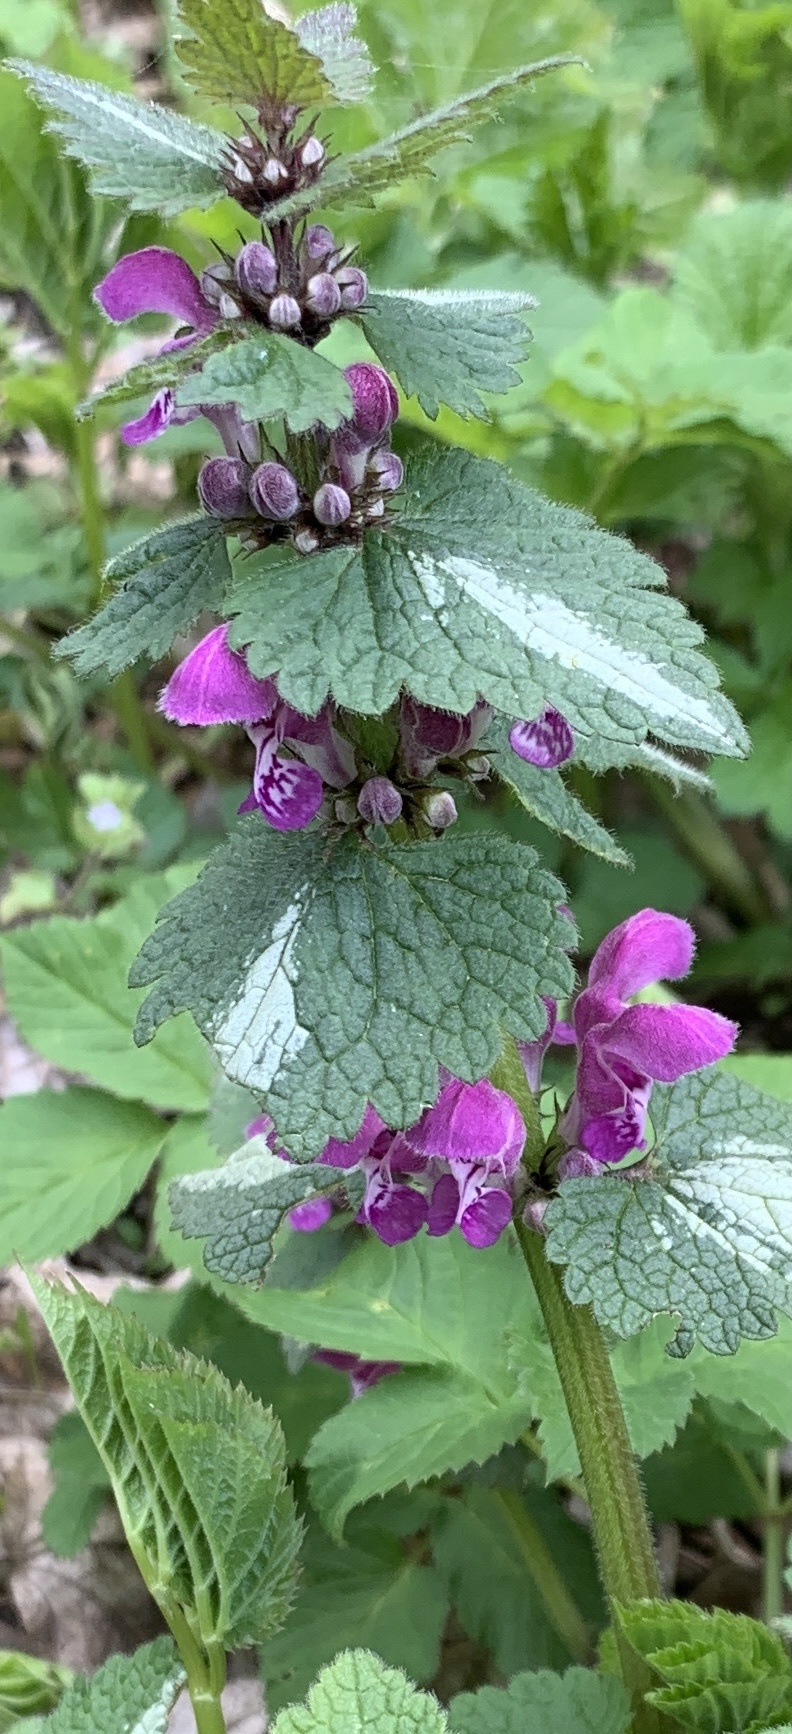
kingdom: Plantae
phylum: Tracheophyta
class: Magnoliopsida
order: Lamiales
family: Lamiaceae
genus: Lamium
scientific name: Lamium maculatum
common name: Spotted dead-nettle
